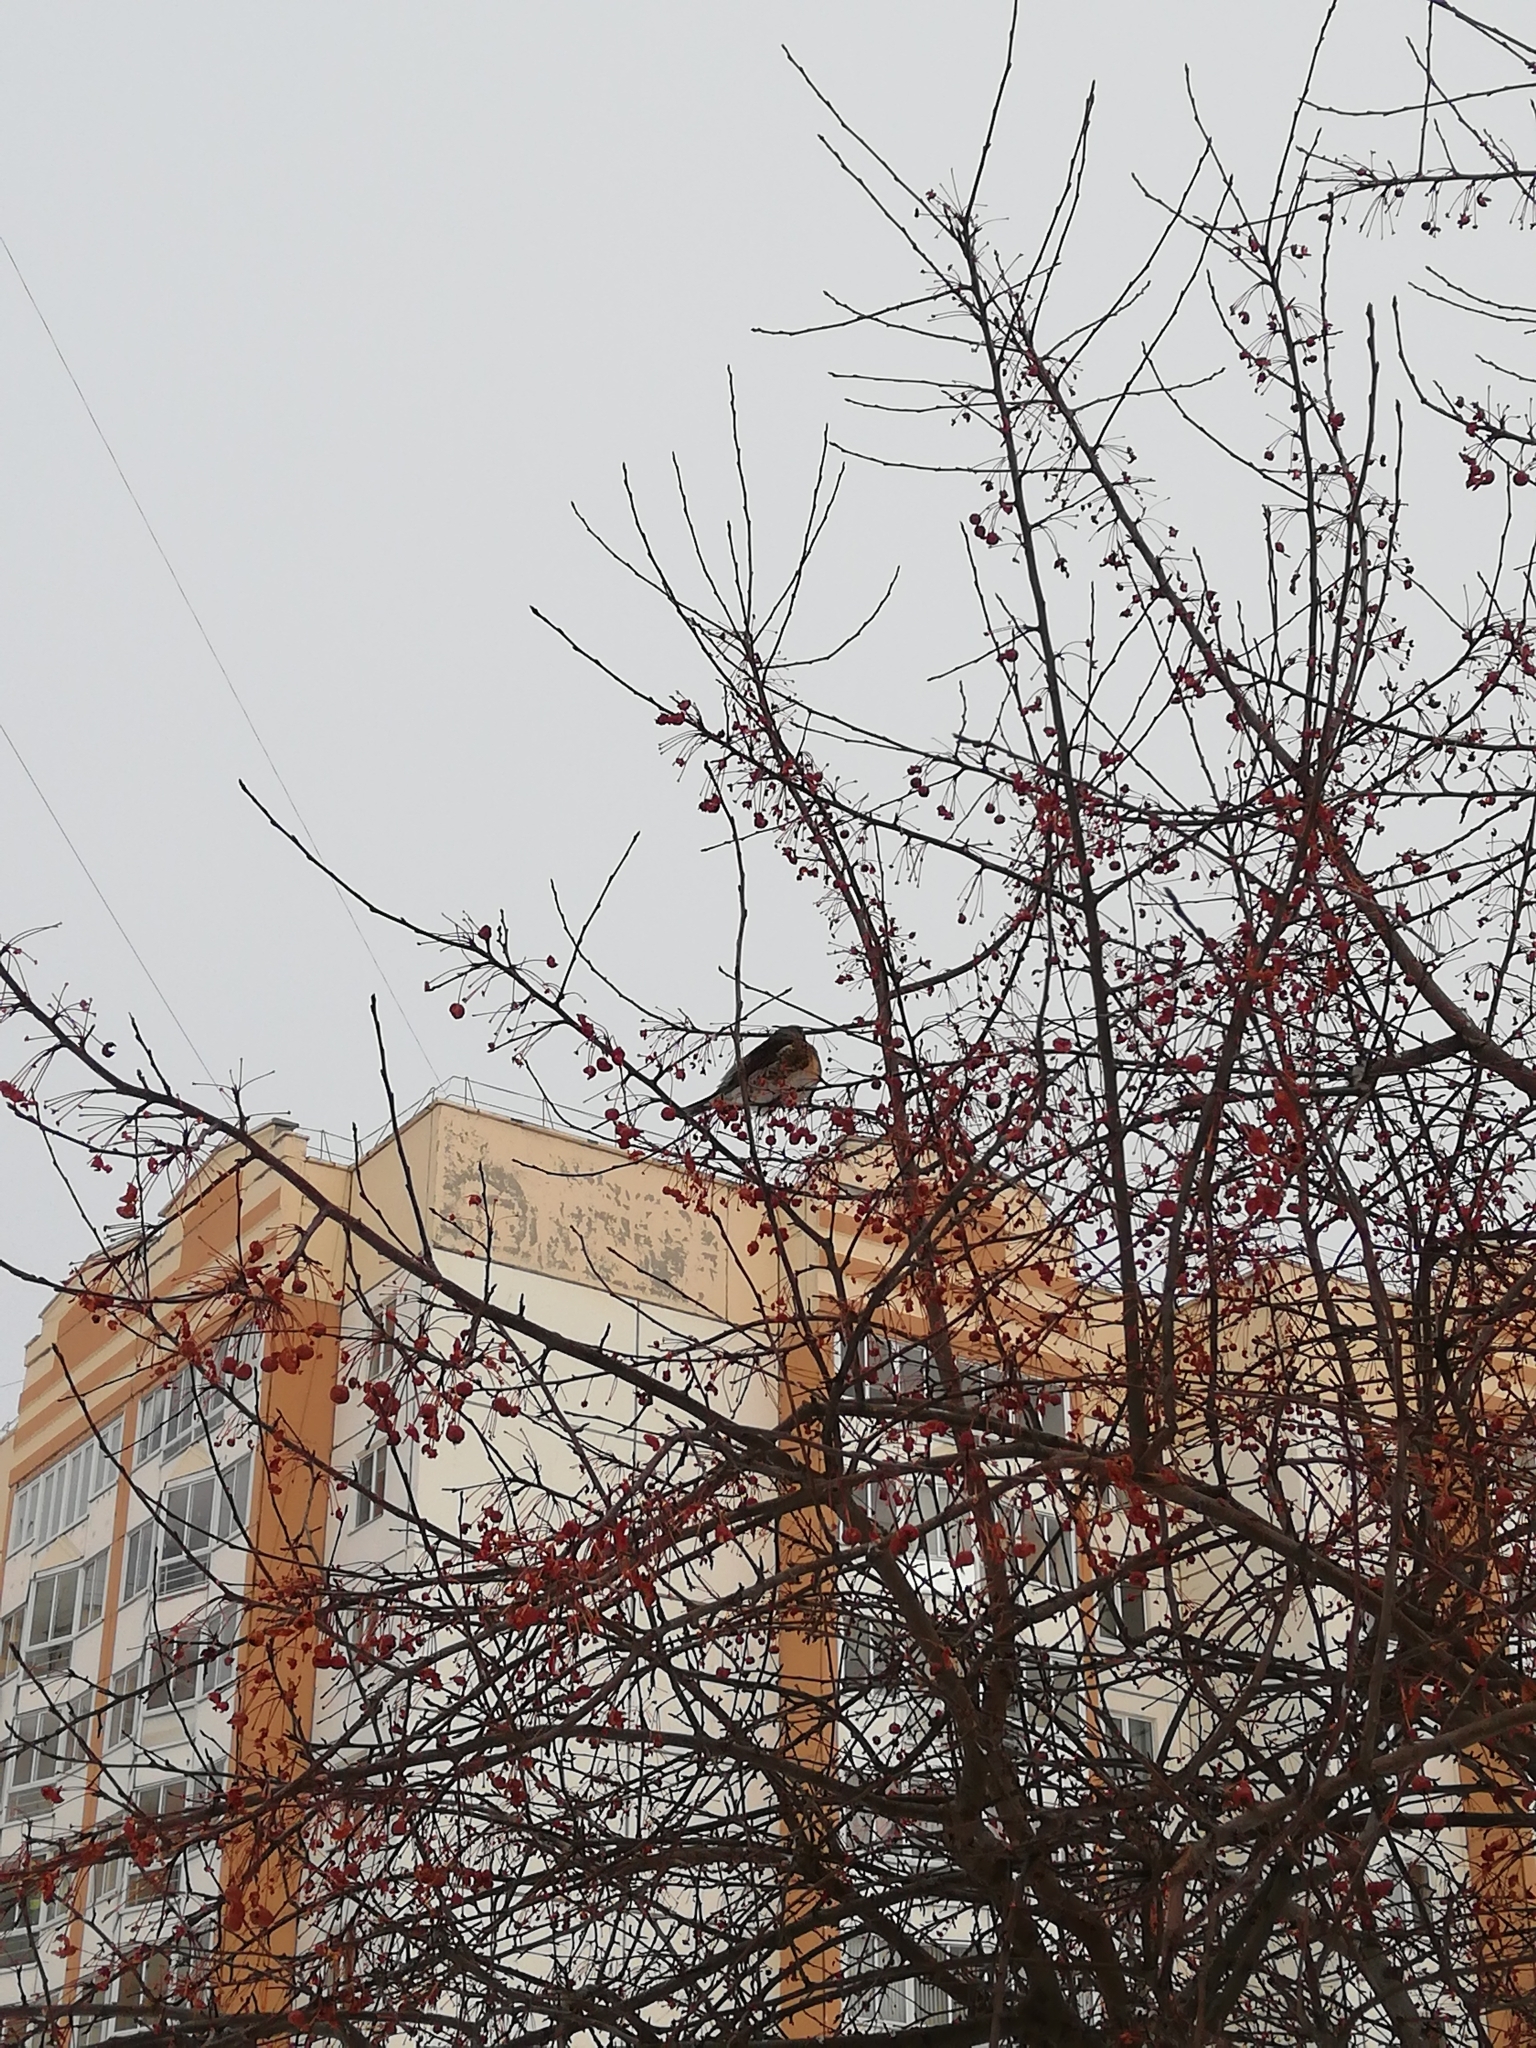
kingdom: Animalia
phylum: Chordata
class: Aves
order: Passeriformes
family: Turdidae
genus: Turdus
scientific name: Turdus pilaris
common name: Fieldfare
